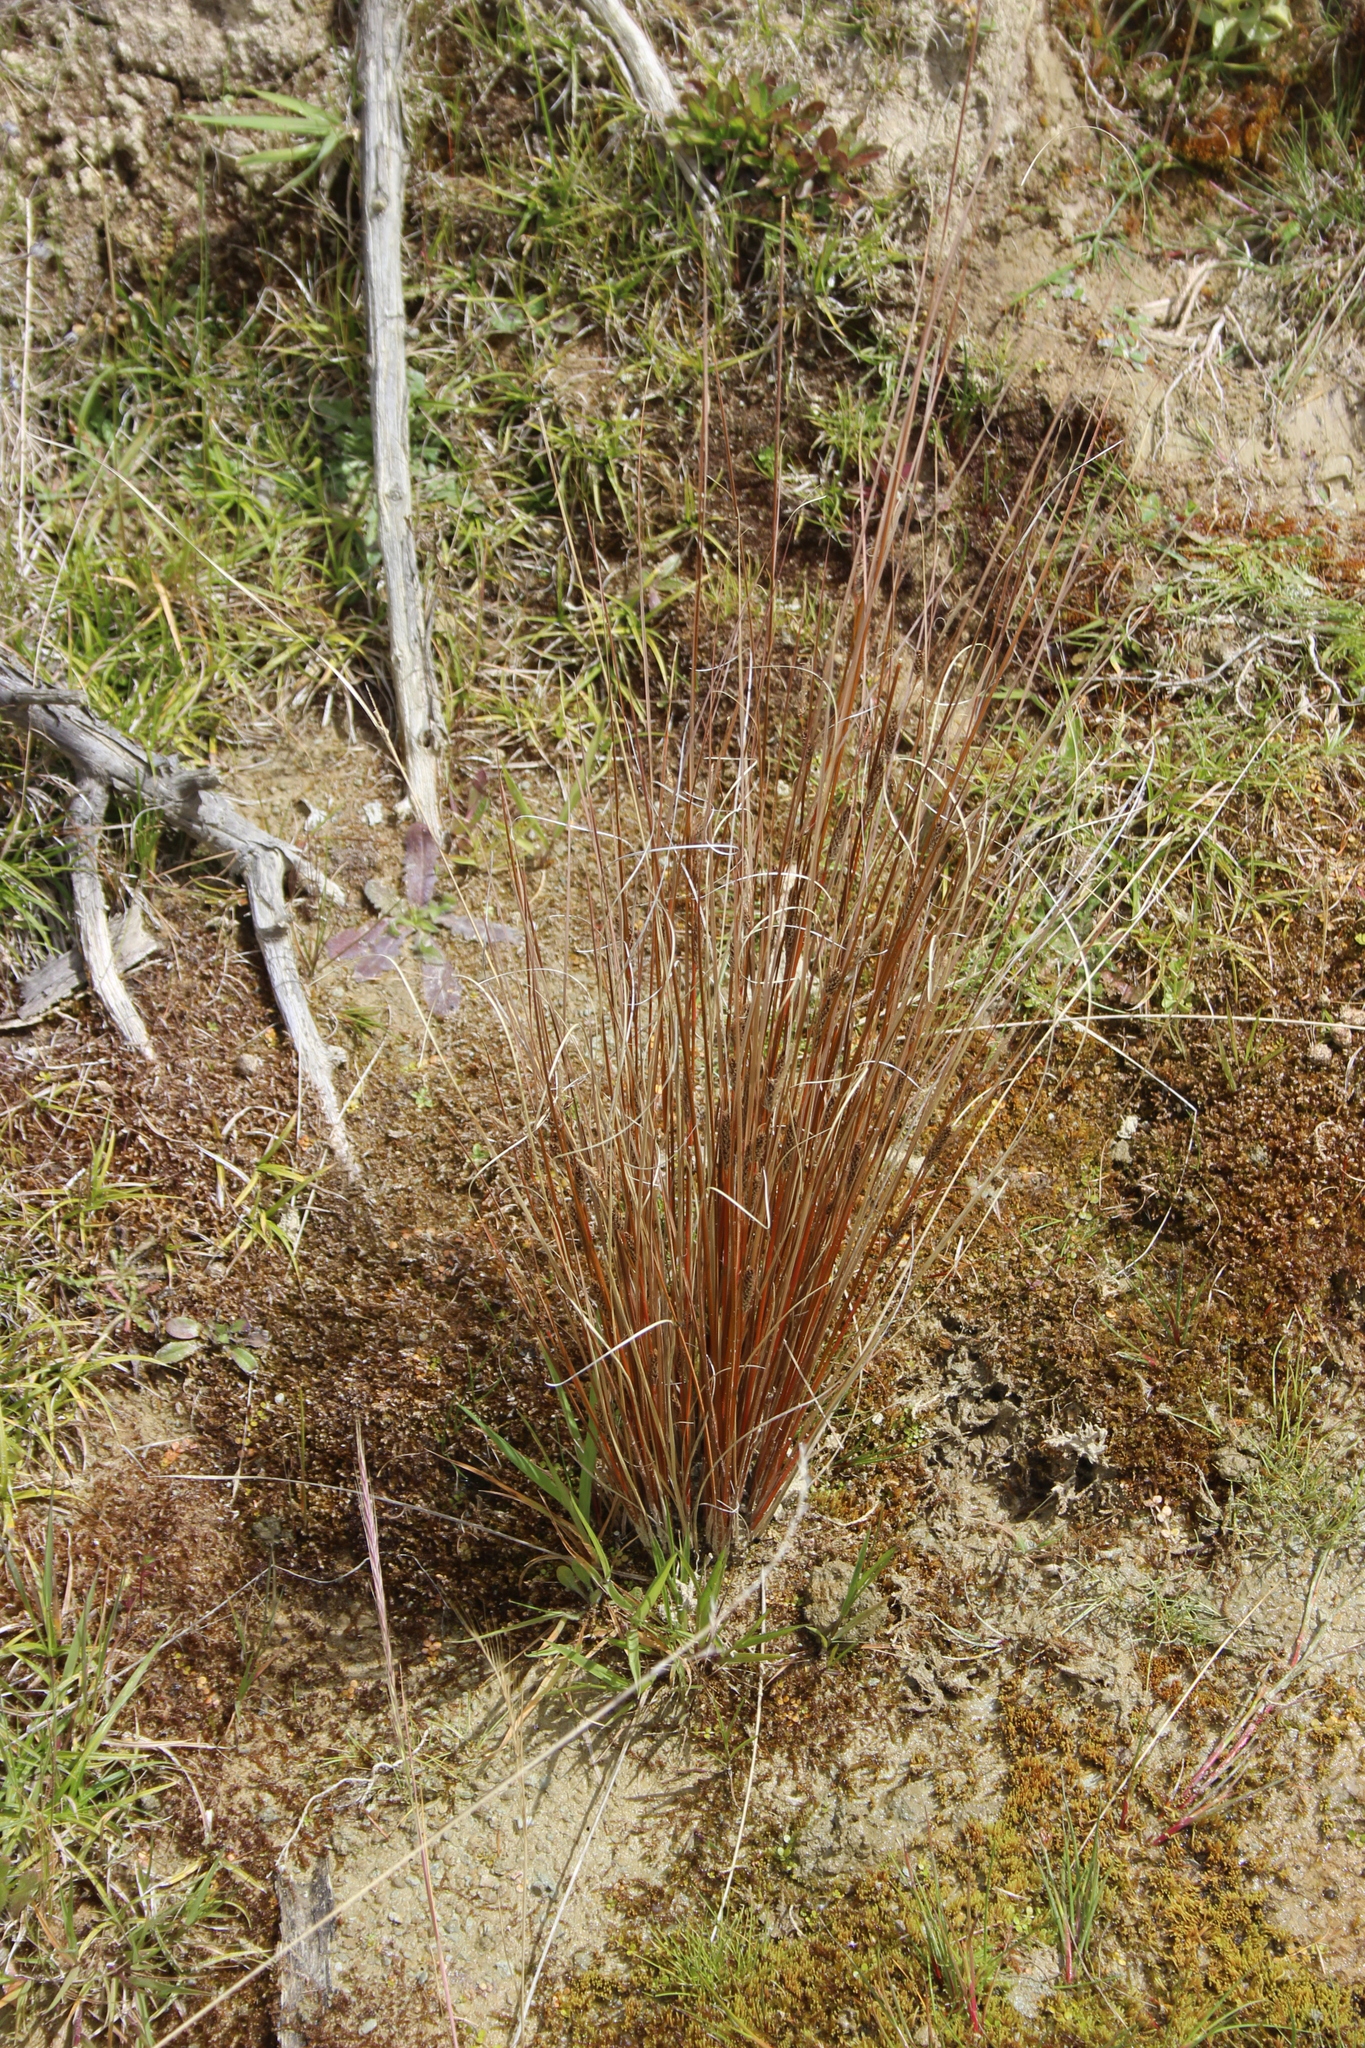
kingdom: Plantae
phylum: Tracheophyta
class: Liliopsida
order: Poales
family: Cyperaceae
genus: Carex
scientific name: Carex buchananii
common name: Leatherleaf sedge
